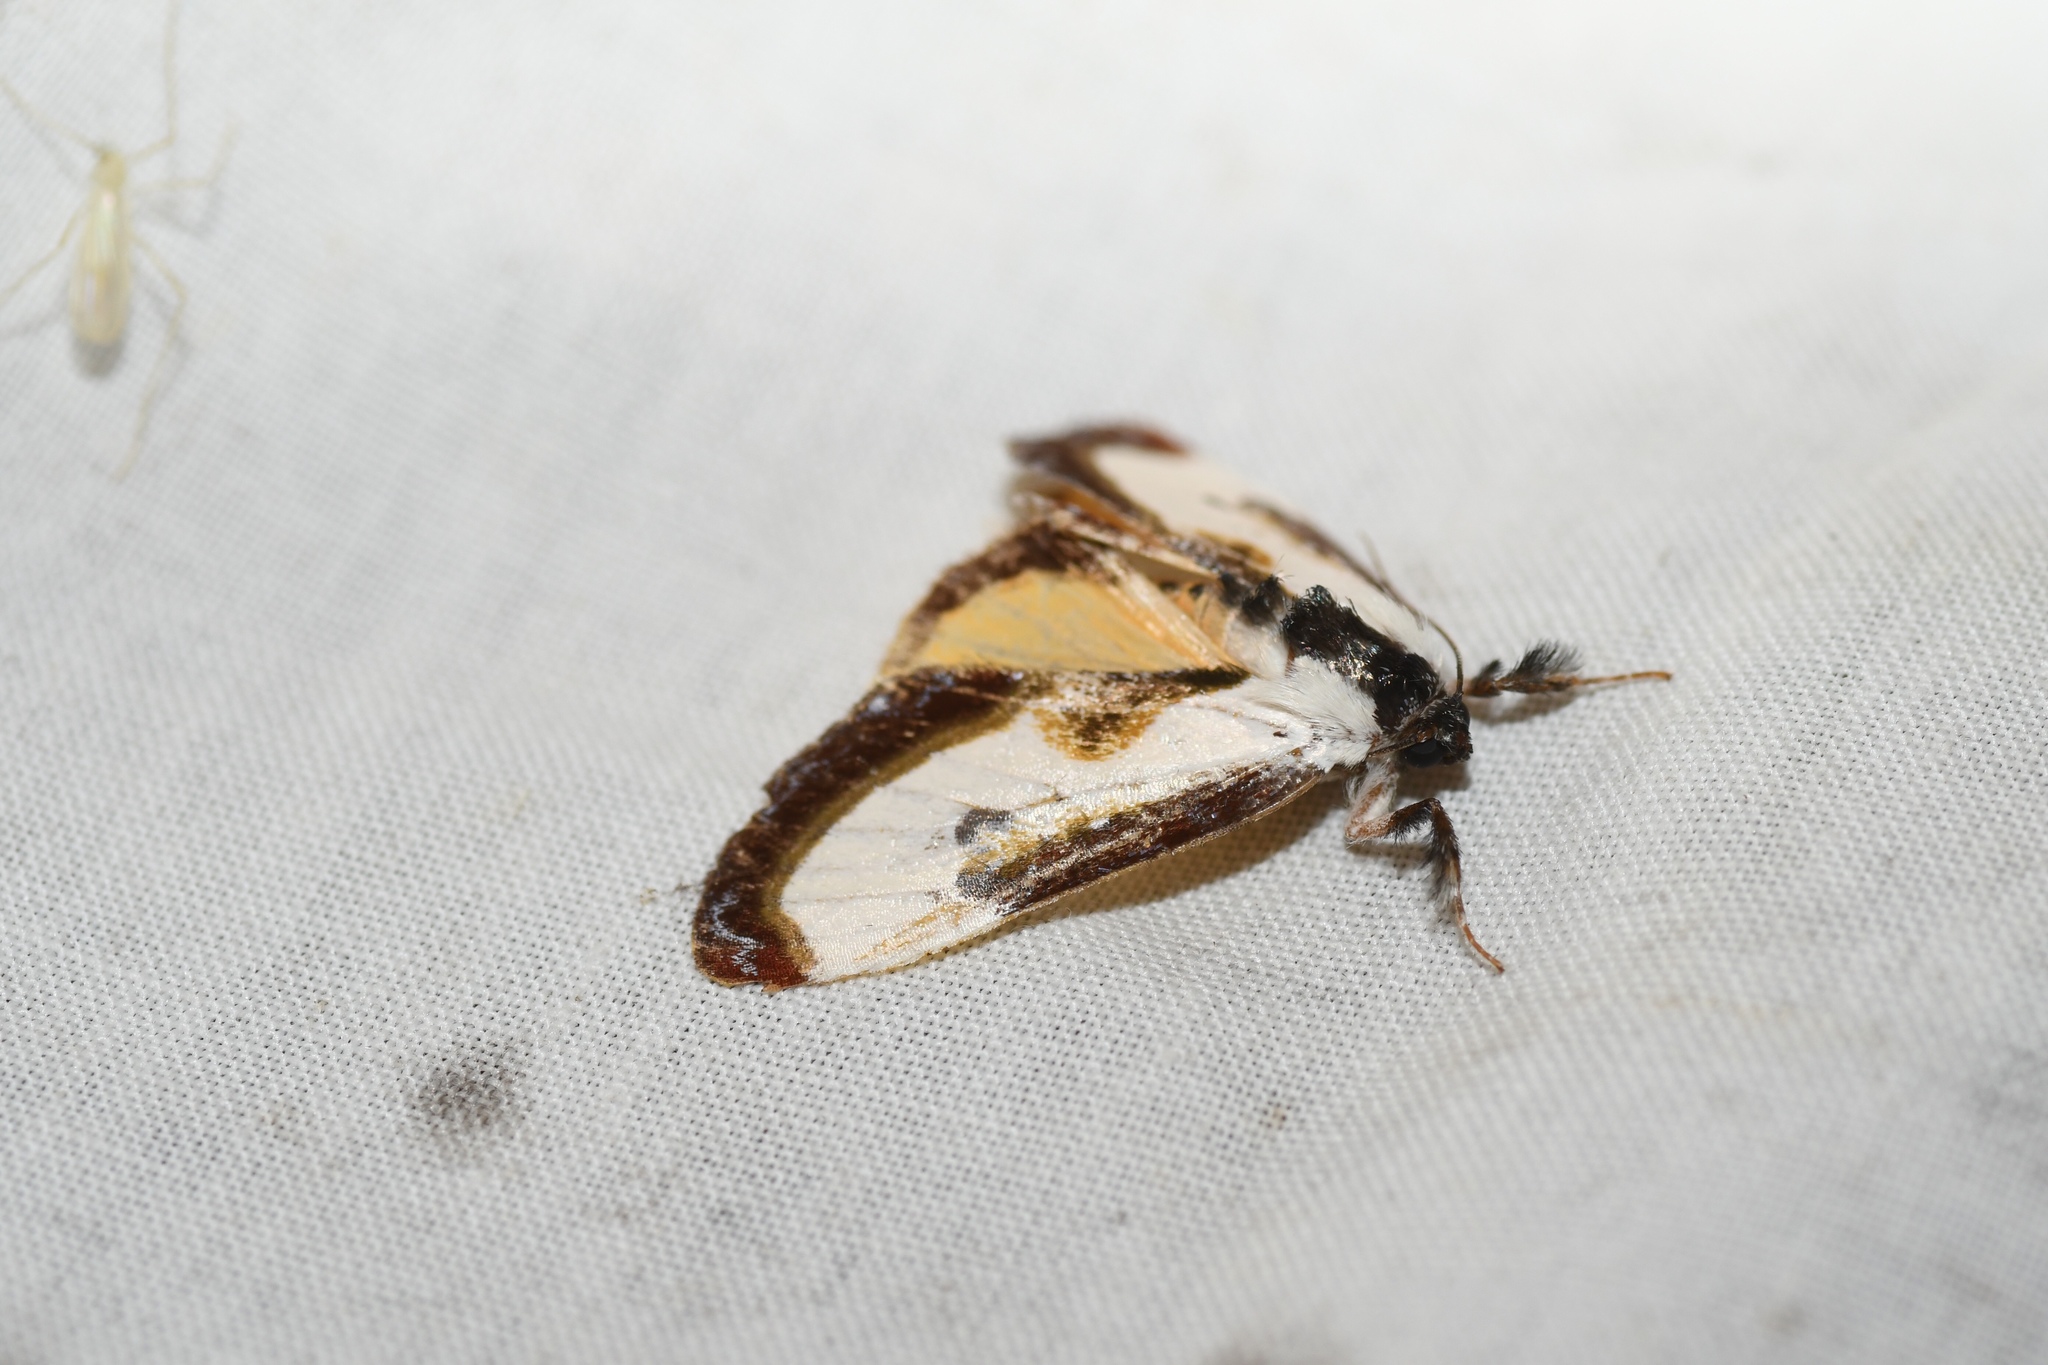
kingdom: Animalia
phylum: Arthropoda
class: Insecta
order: Lepidoptera
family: Noctuidae
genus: Eudryas
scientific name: Eudryas grata
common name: Beautiful wood-nymph
